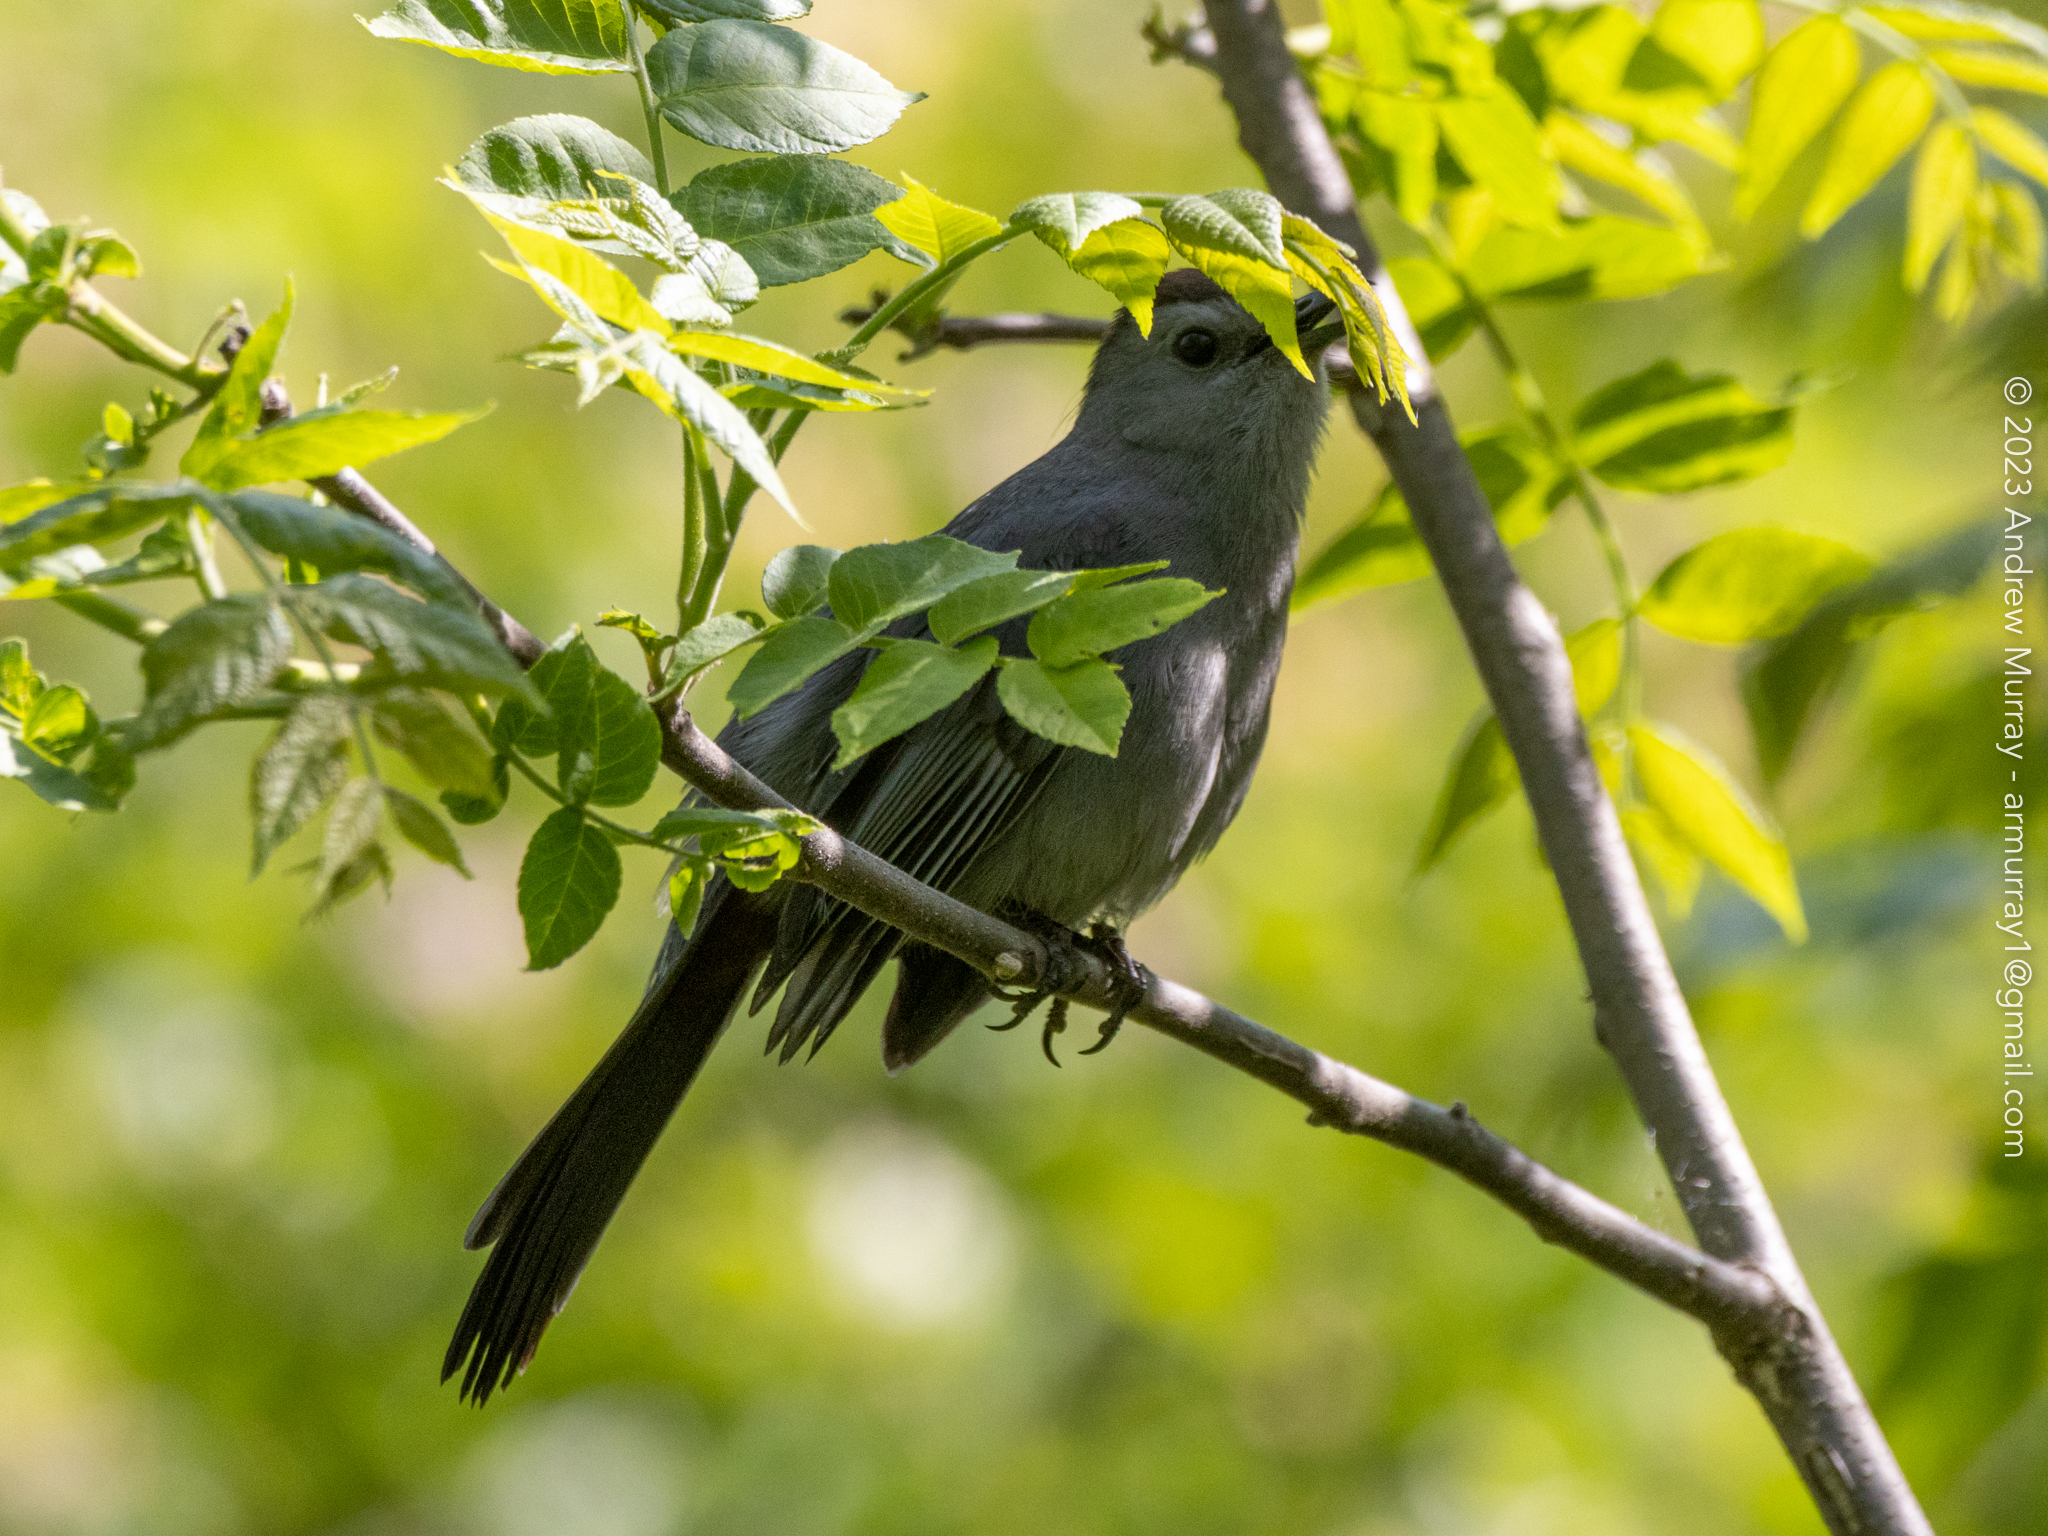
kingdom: Animalia
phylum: Chordata
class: Aves
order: Passeriformes
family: Mimidae
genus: Dumetella
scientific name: Dumetella carolinensis
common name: Gray catbird
